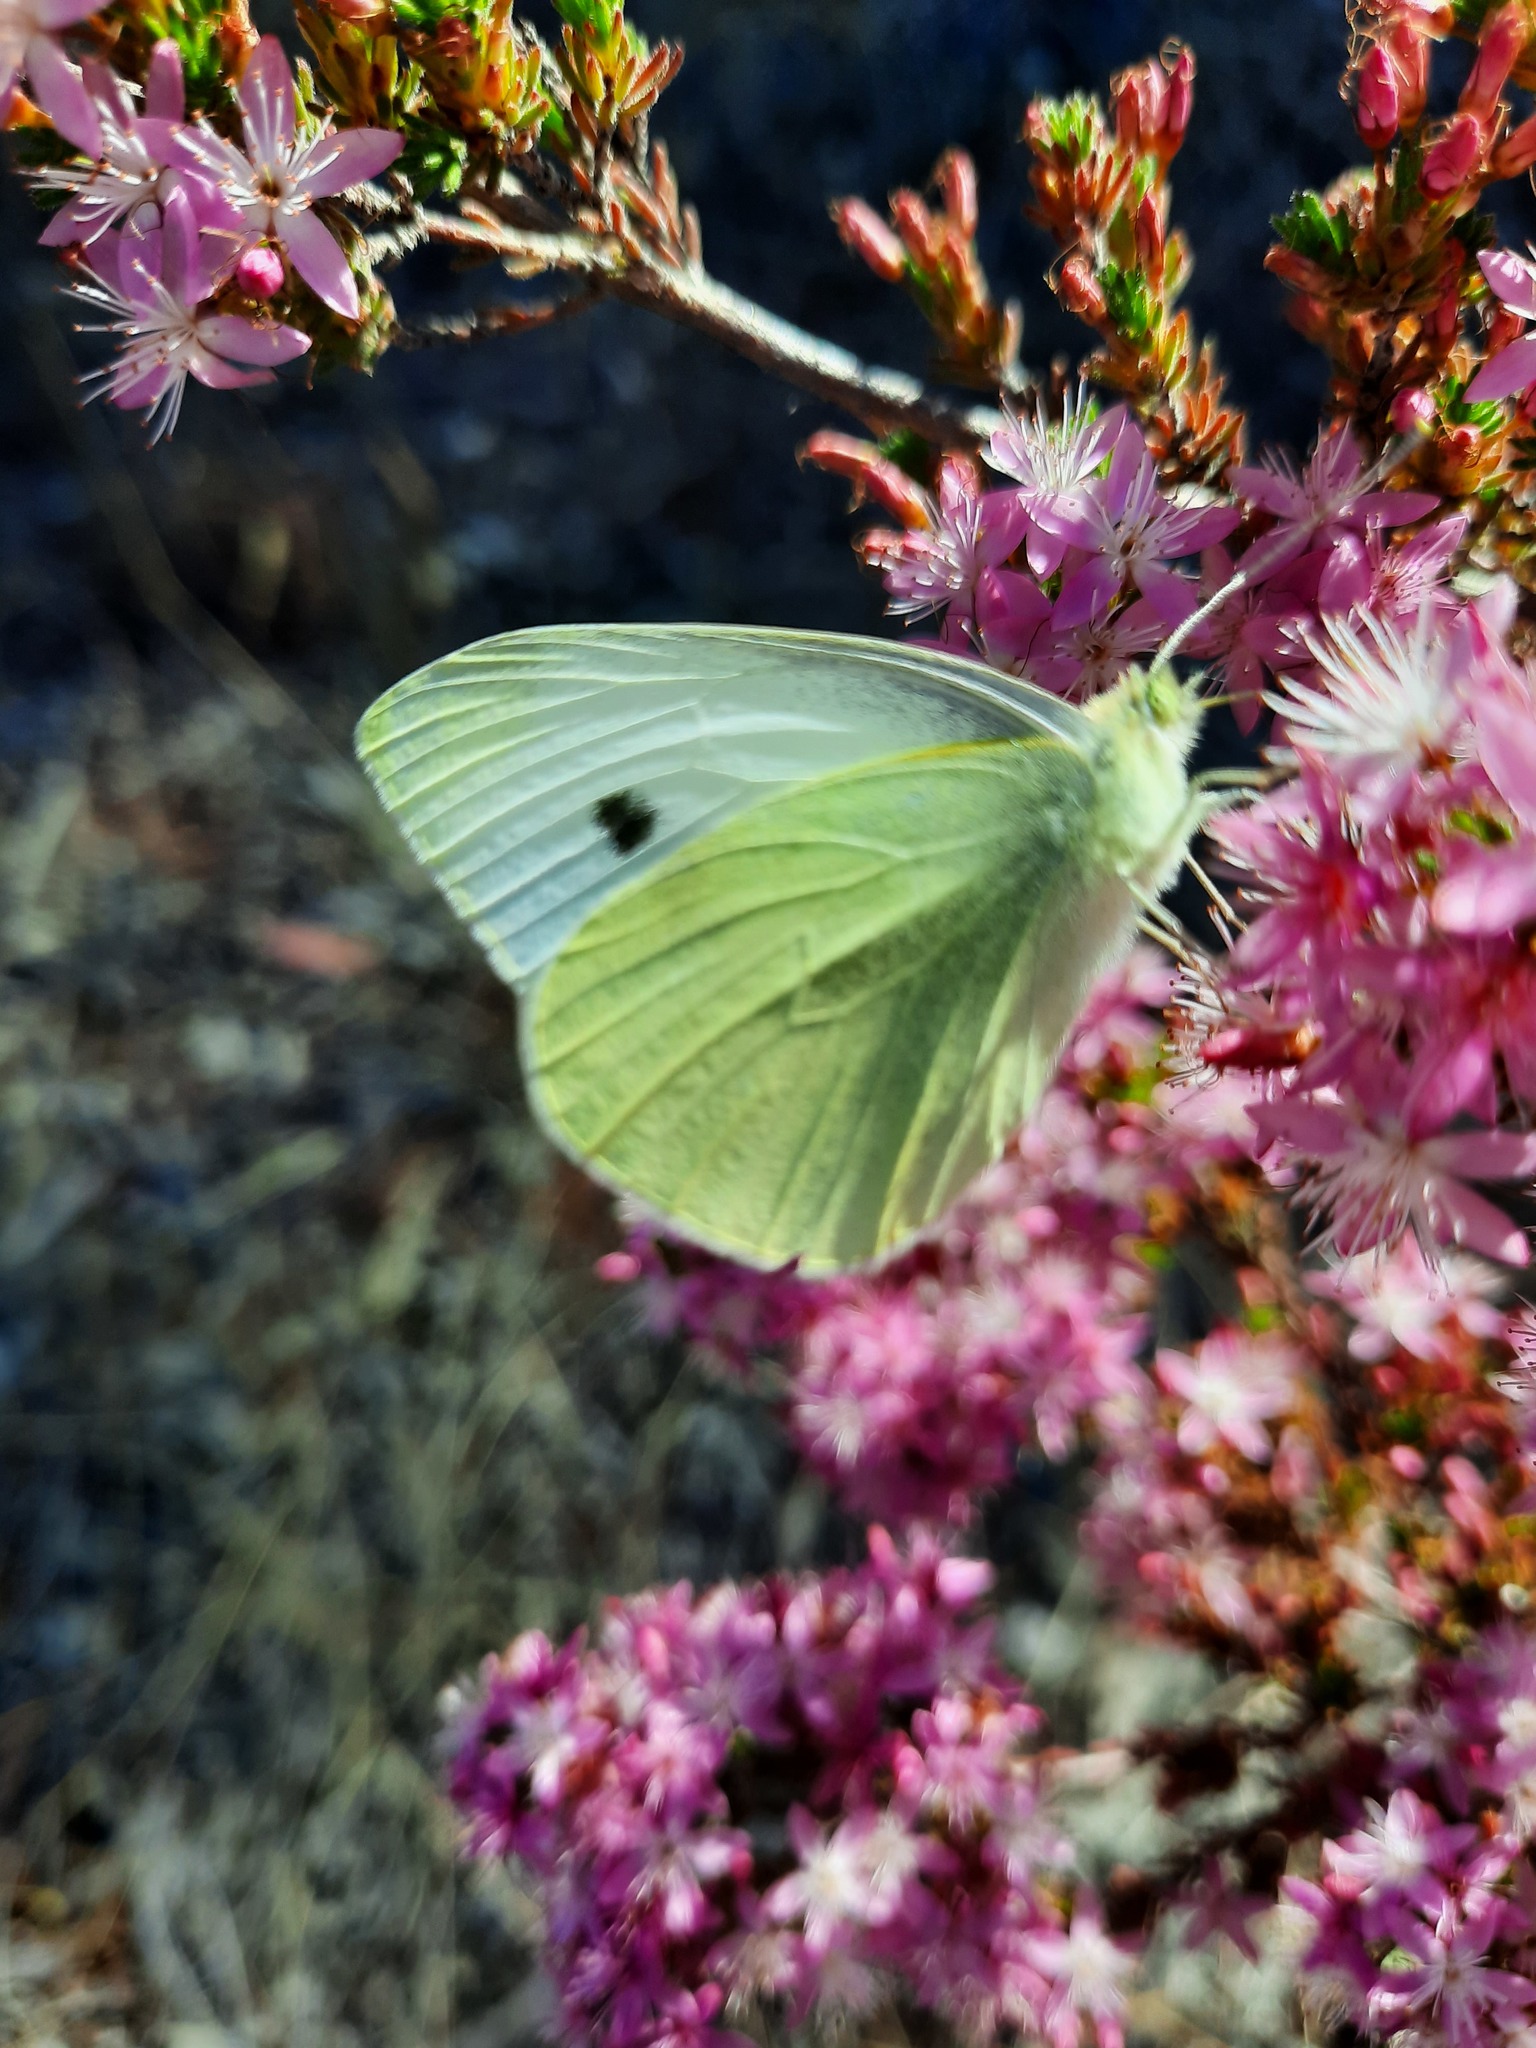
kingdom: Animalia
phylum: Arthropoda
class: Insecta
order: Lepidoptera
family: Pieridae
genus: Pieris
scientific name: Pieris rapae
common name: Small white
